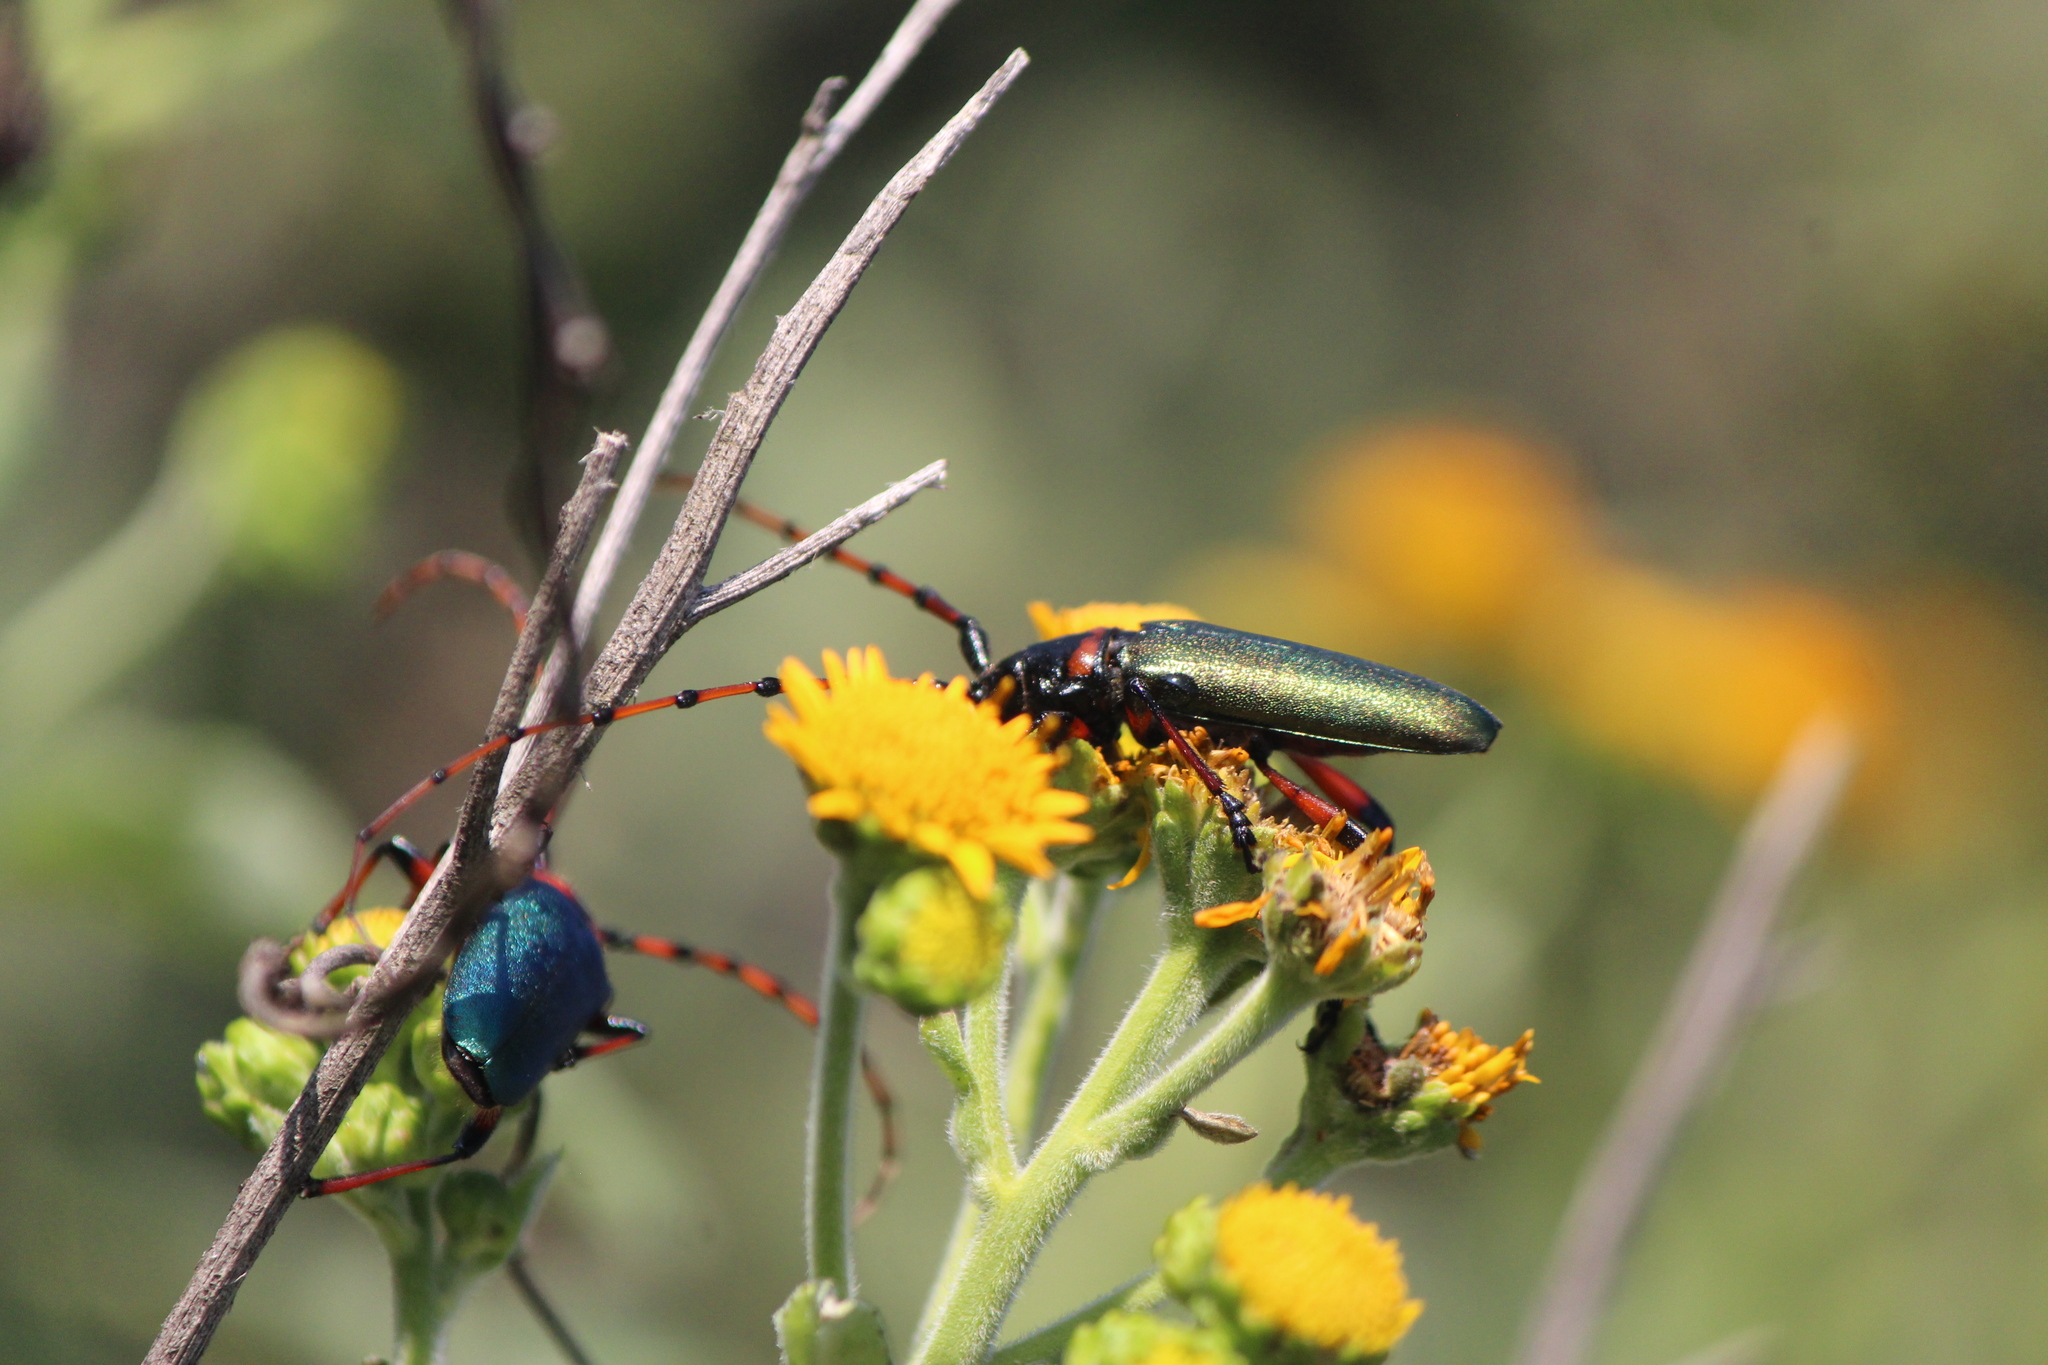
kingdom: Animalia
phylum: Arthropoda
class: Insecta
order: Coleoptera
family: Cerambycidae
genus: Stenaspis
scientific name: Stenaspis verticalis
